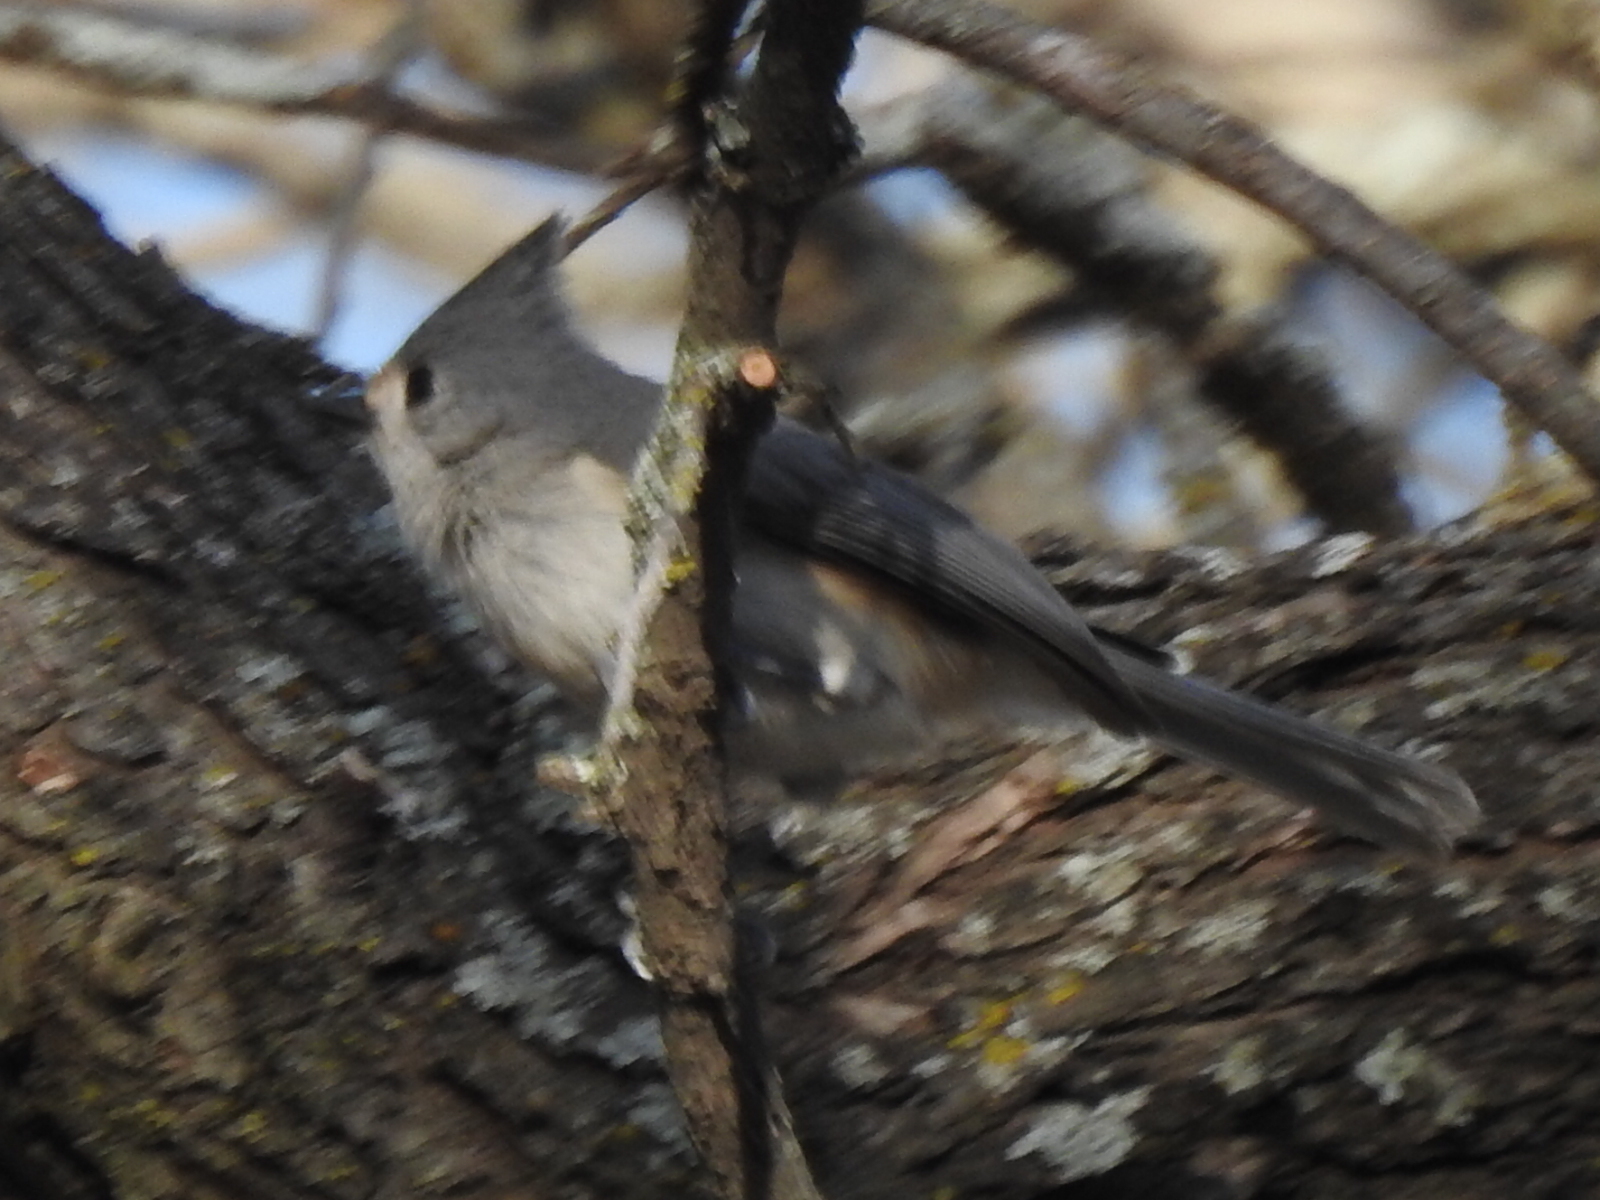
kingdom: Animalia
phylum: Chordata
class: Aves
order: Passeriformes
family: Paridae
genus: Baeolophus
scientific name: Baeolophus
